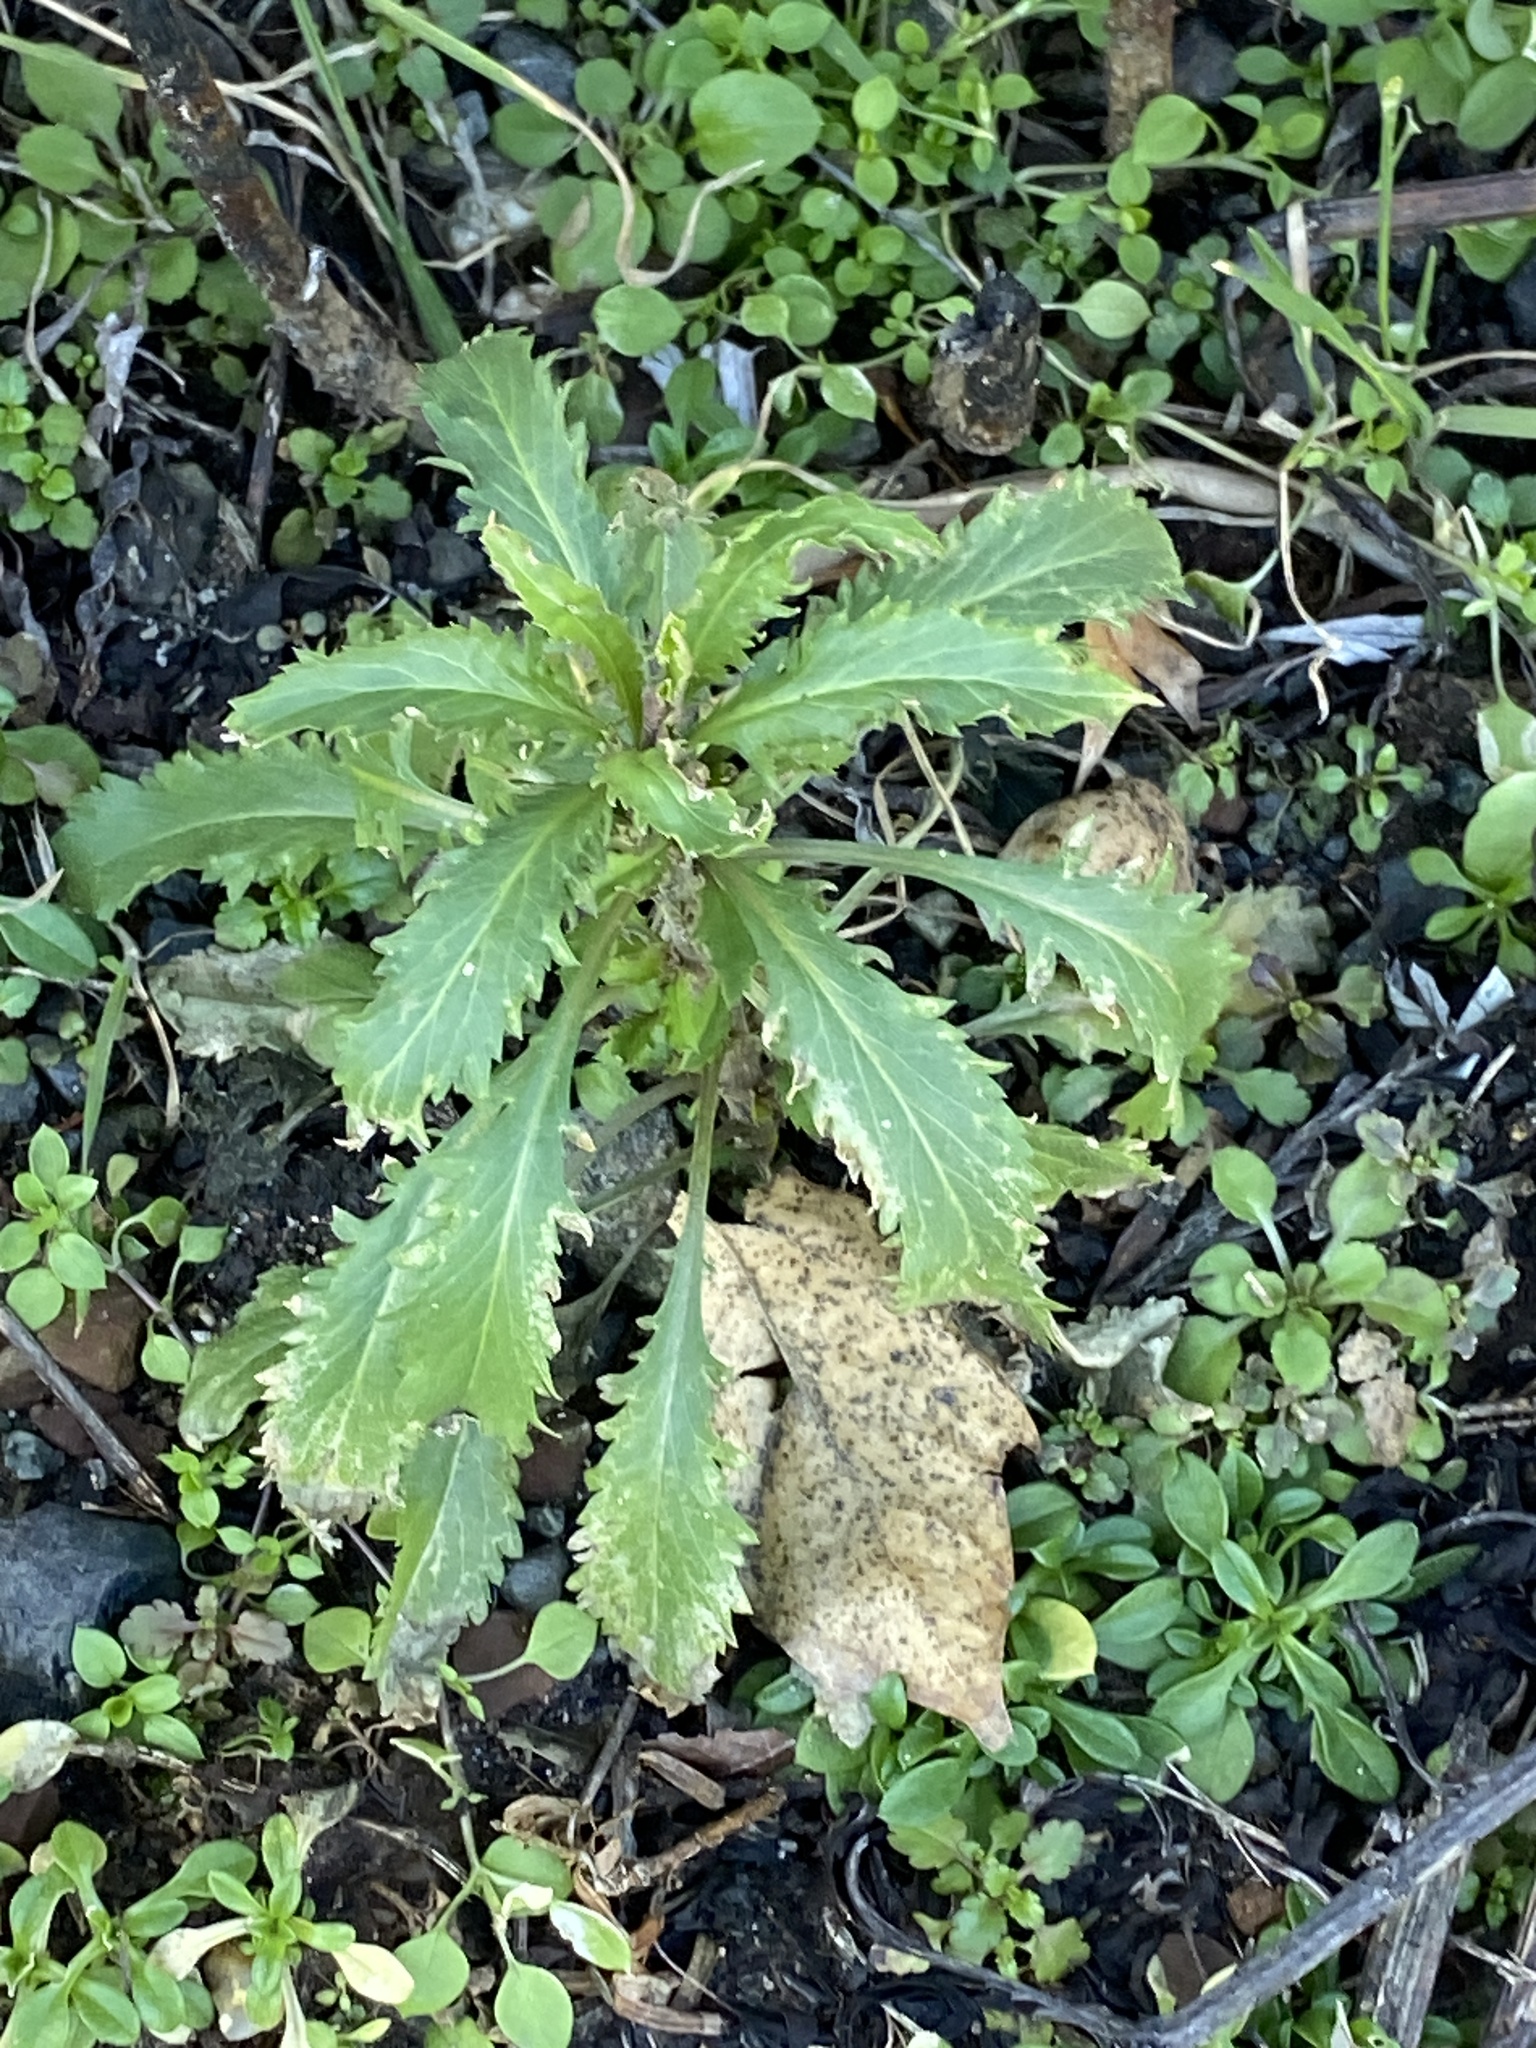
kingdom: Plantae
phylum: Tracheophyta
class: Magnoliopsida
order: Caryophyllales
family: Amaranthaceae
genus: Dysphania
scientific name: Dysphania ambrosioides
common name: Wormseed
